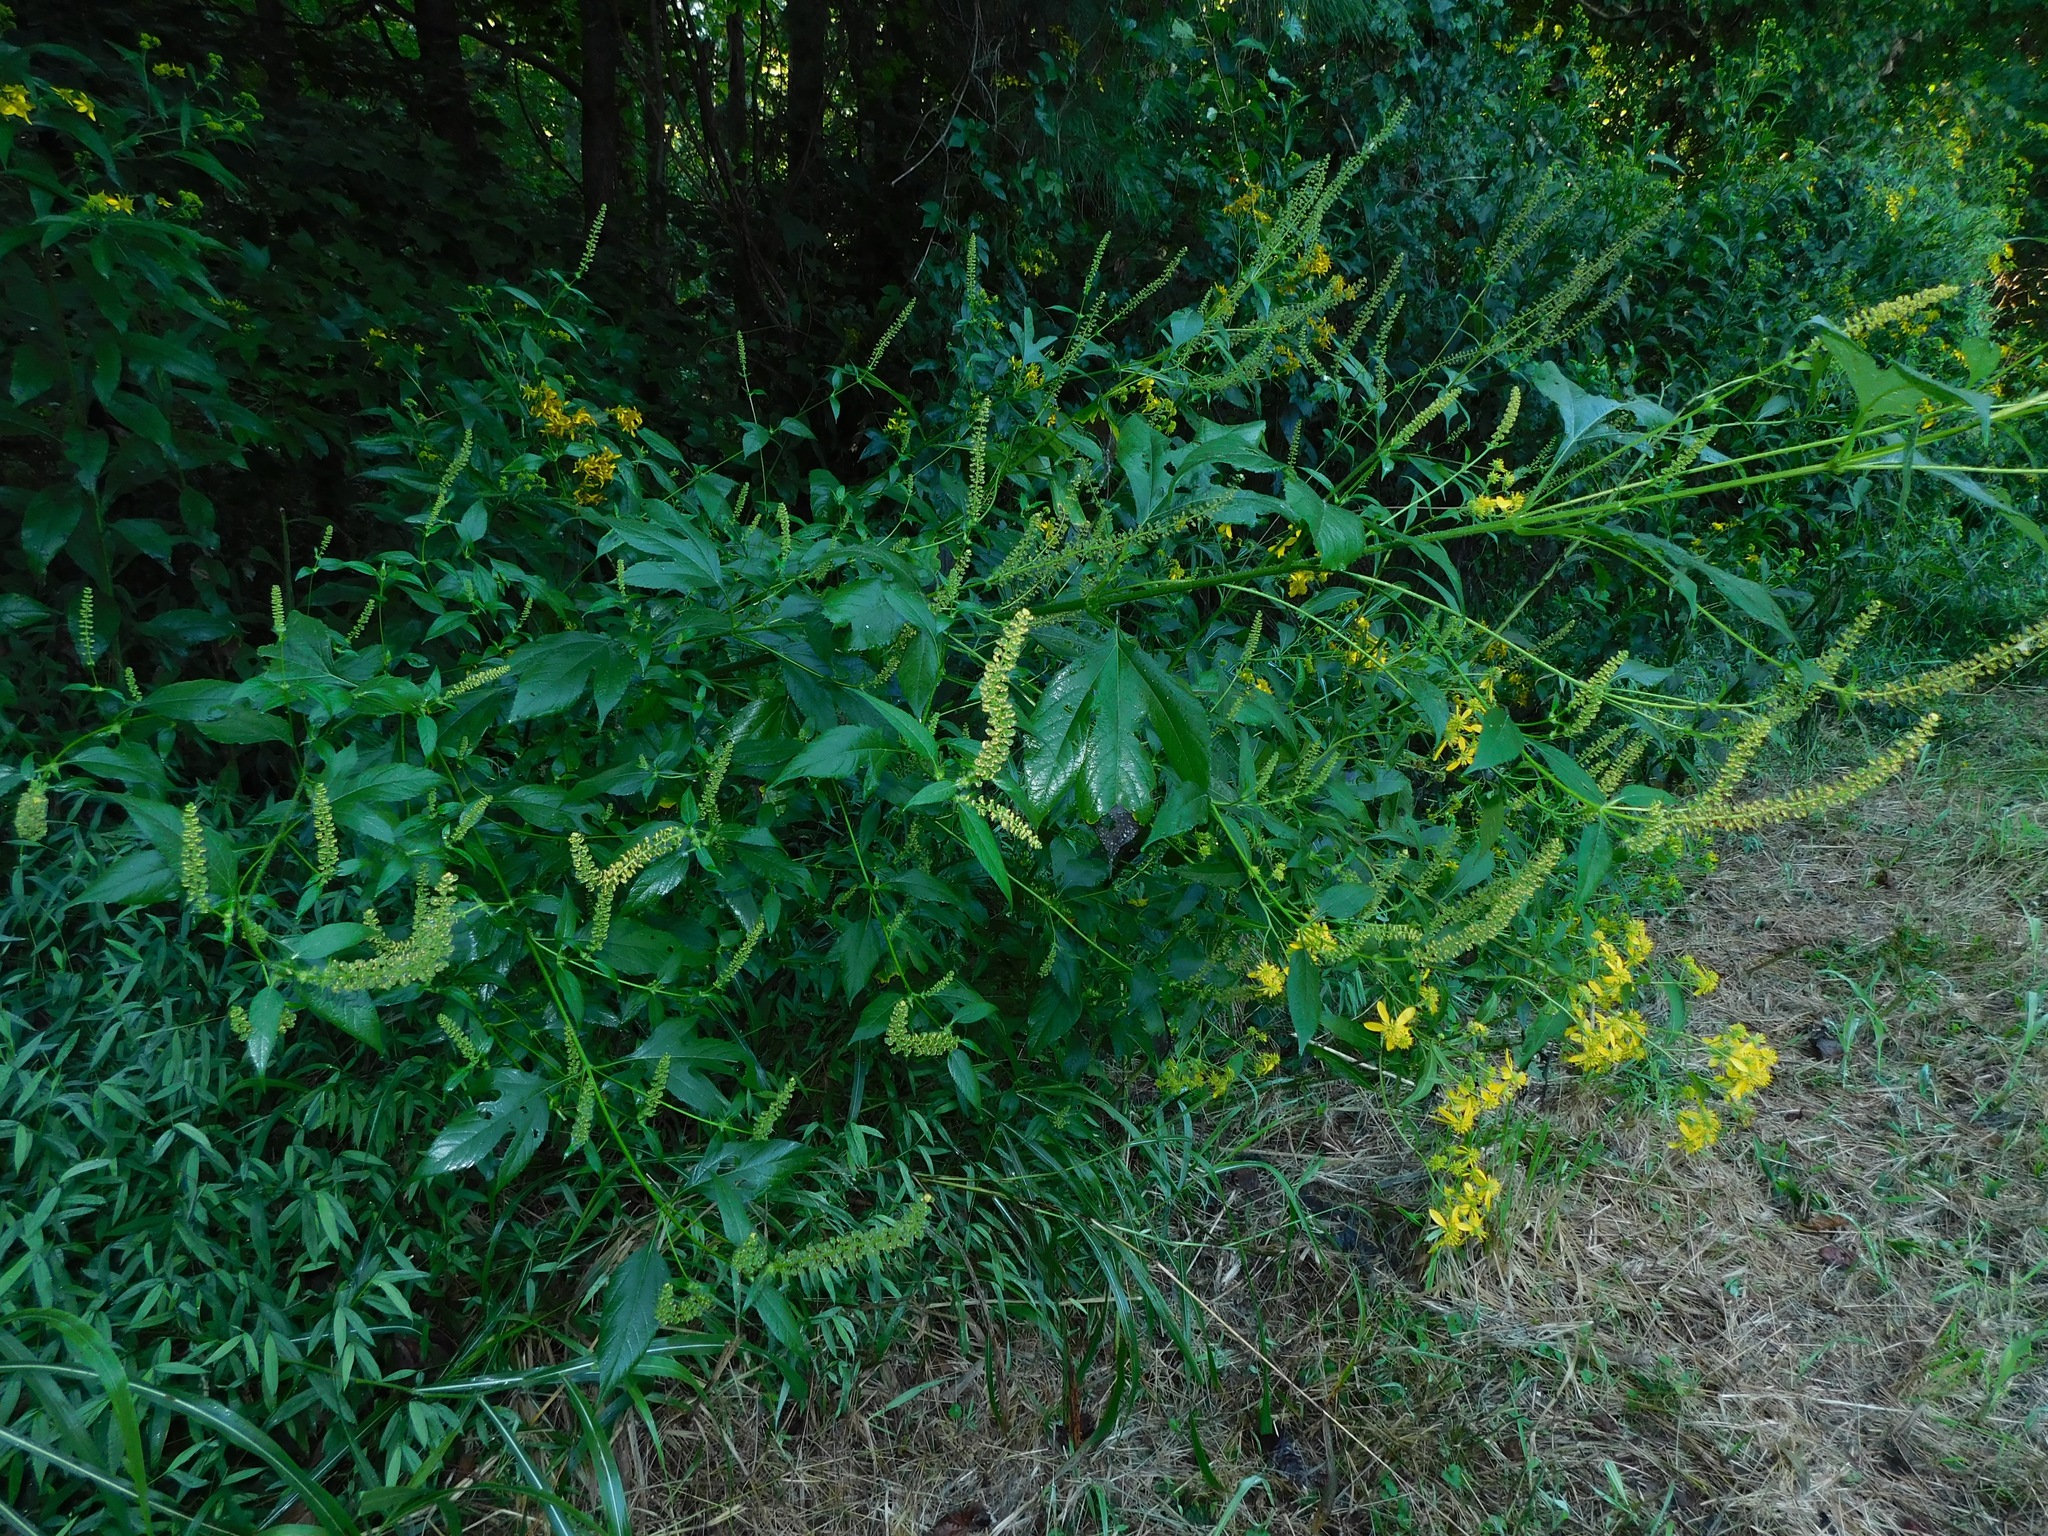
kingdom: Plantae
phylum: Tracheophyta
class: Magnoliopsida
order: Asterales
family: Asteraceae
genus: Ambrosia
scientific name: Ambrosia trifida
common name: Giant ragweed
